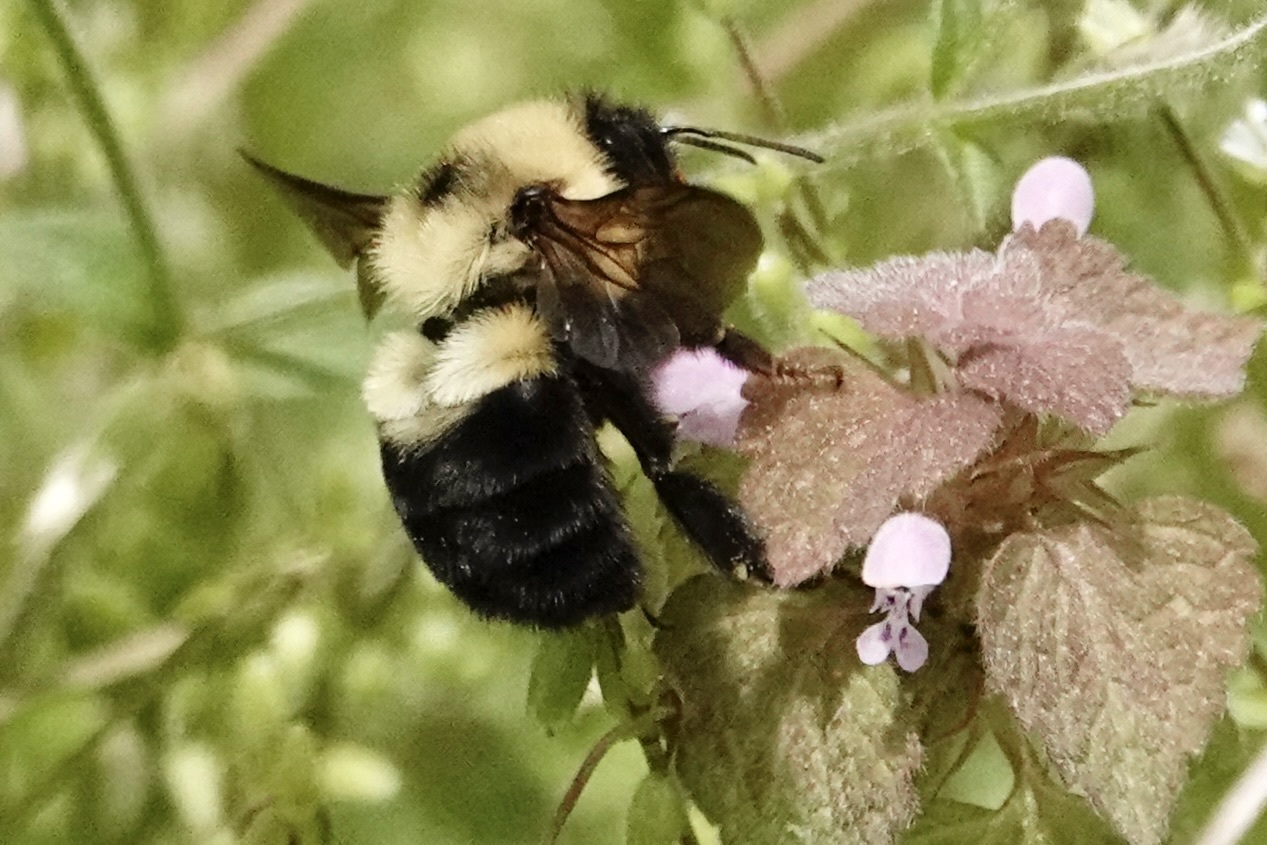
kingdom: Animalia
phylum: Arthropoda
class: Insecta
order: Hymenoptera
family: Apidae
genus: Bombus
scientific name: Bombus bimaculatus
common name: Two-spotted bumble bee
